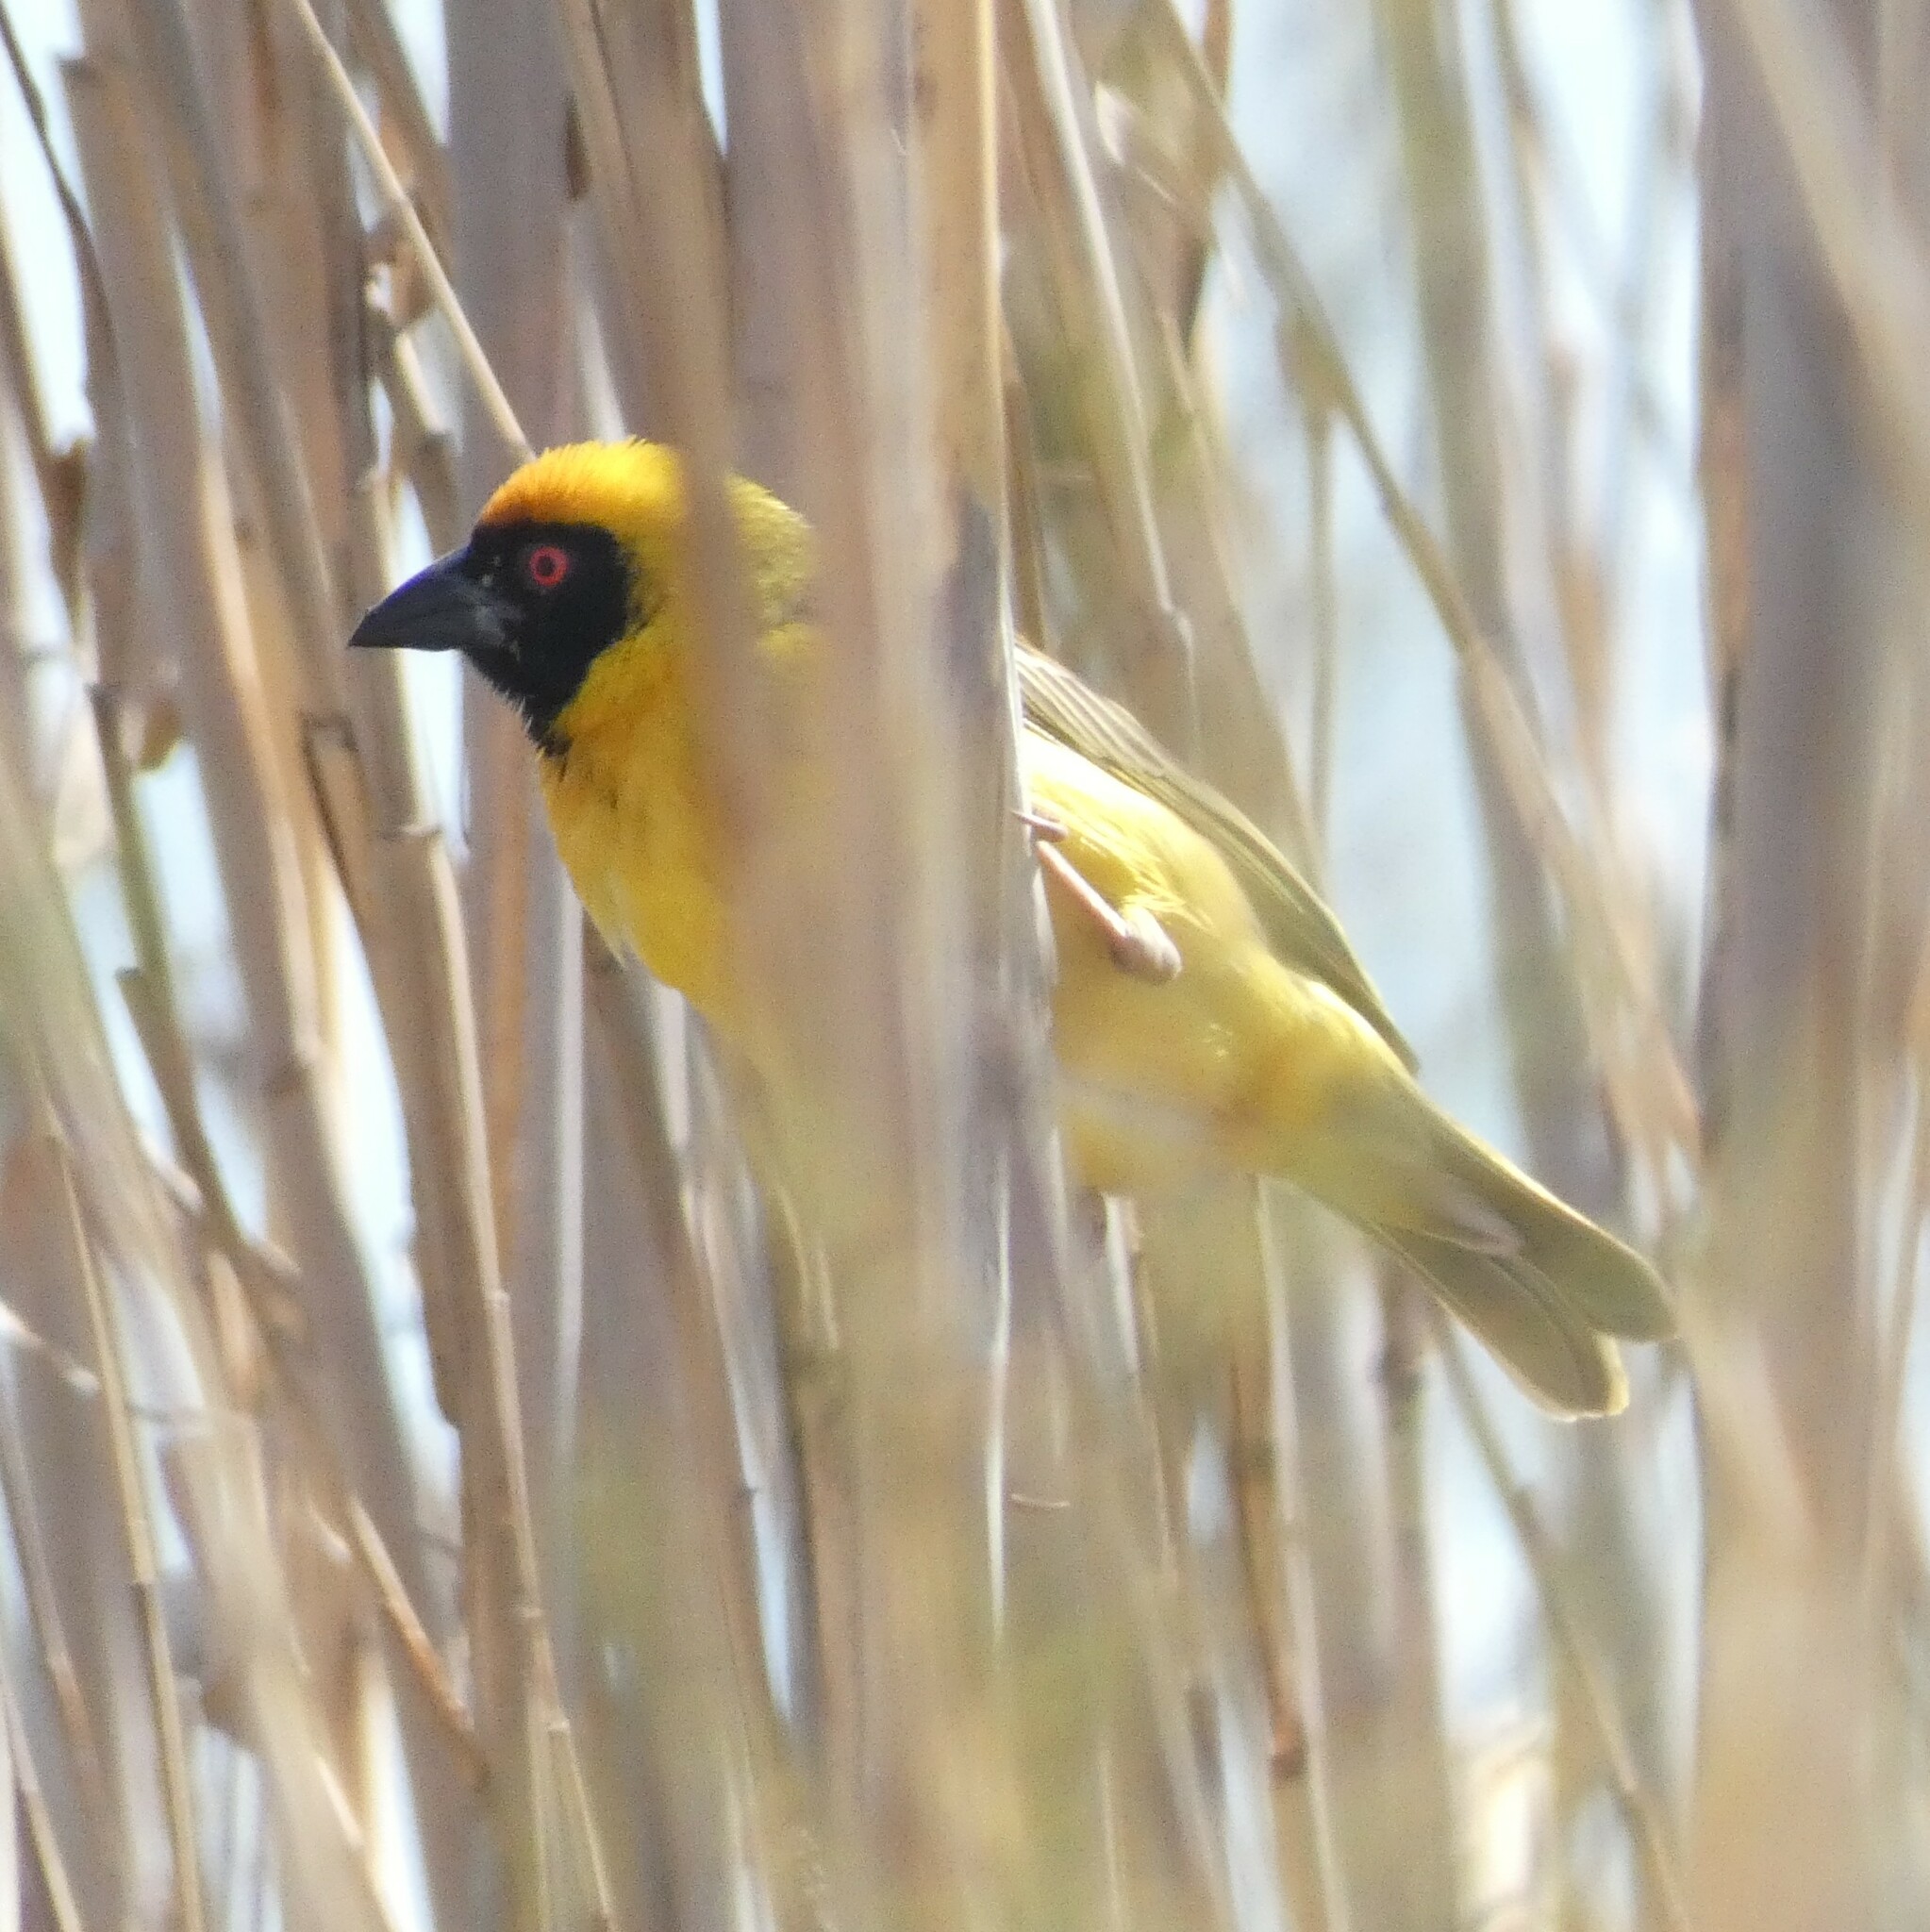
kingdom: Animalia
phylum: Chordata
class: Aves
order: Passeriformes
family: Ploceidae
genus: Ploceus
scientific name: Ploceus velatus
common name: Southern masked weaver
